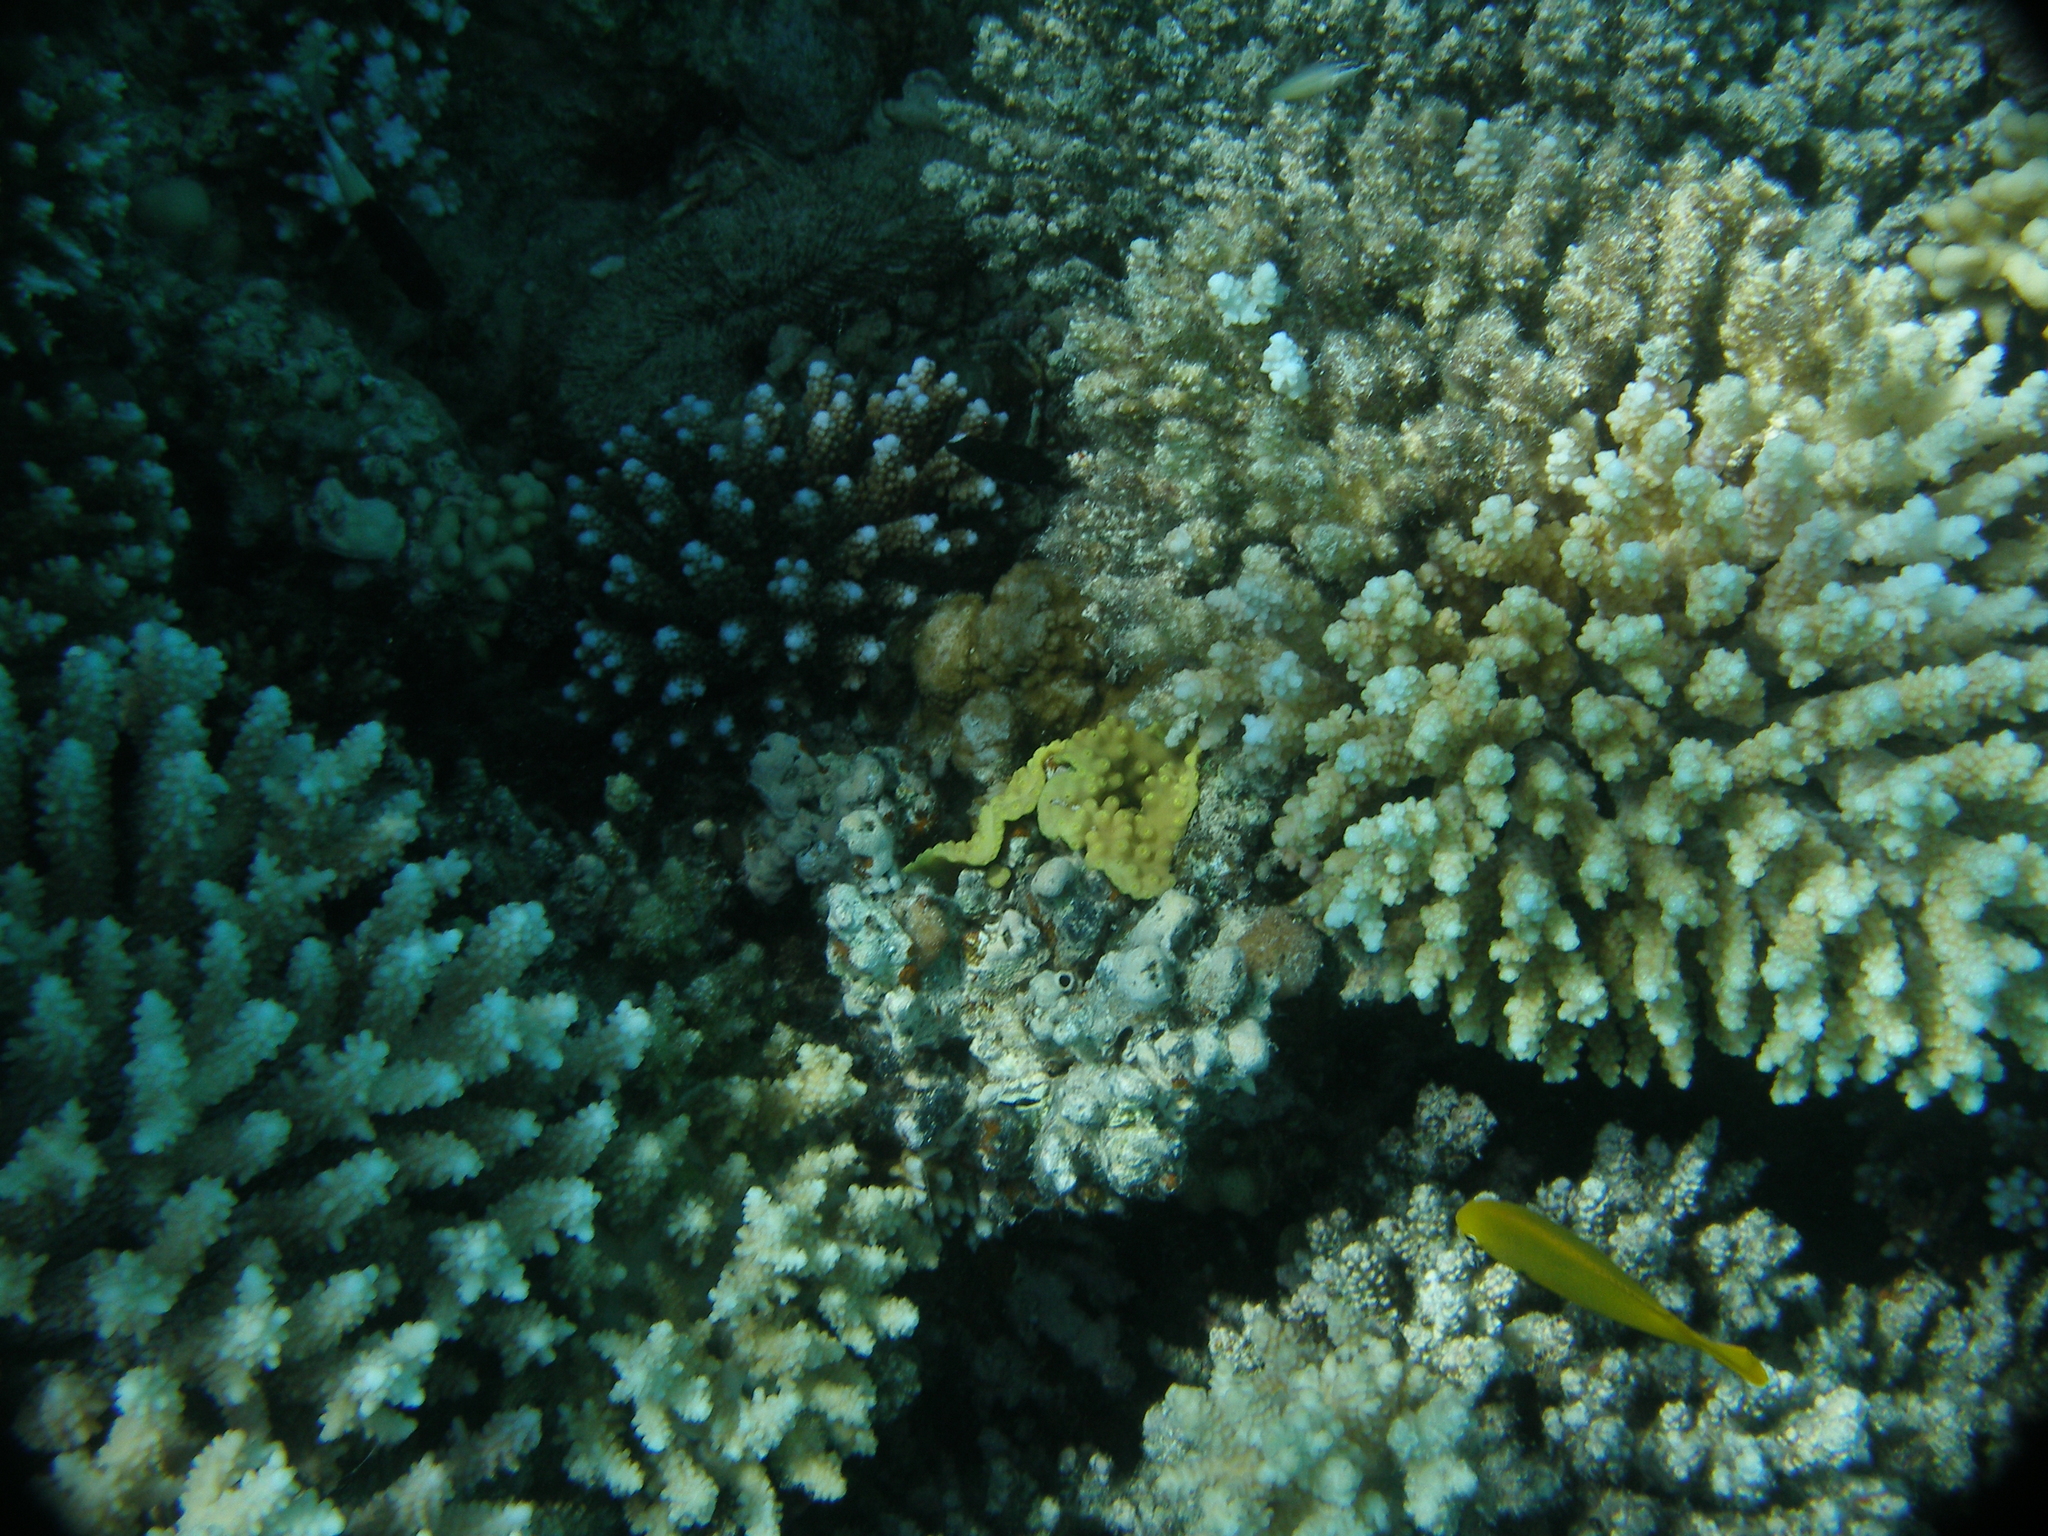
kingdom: Animalia
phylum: Cnidaria
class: Anthozoa
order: Scleractinia
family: Dendrophylliidae
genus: Turbinaria
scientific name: Turbinaria reniformis
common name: Disc coral
